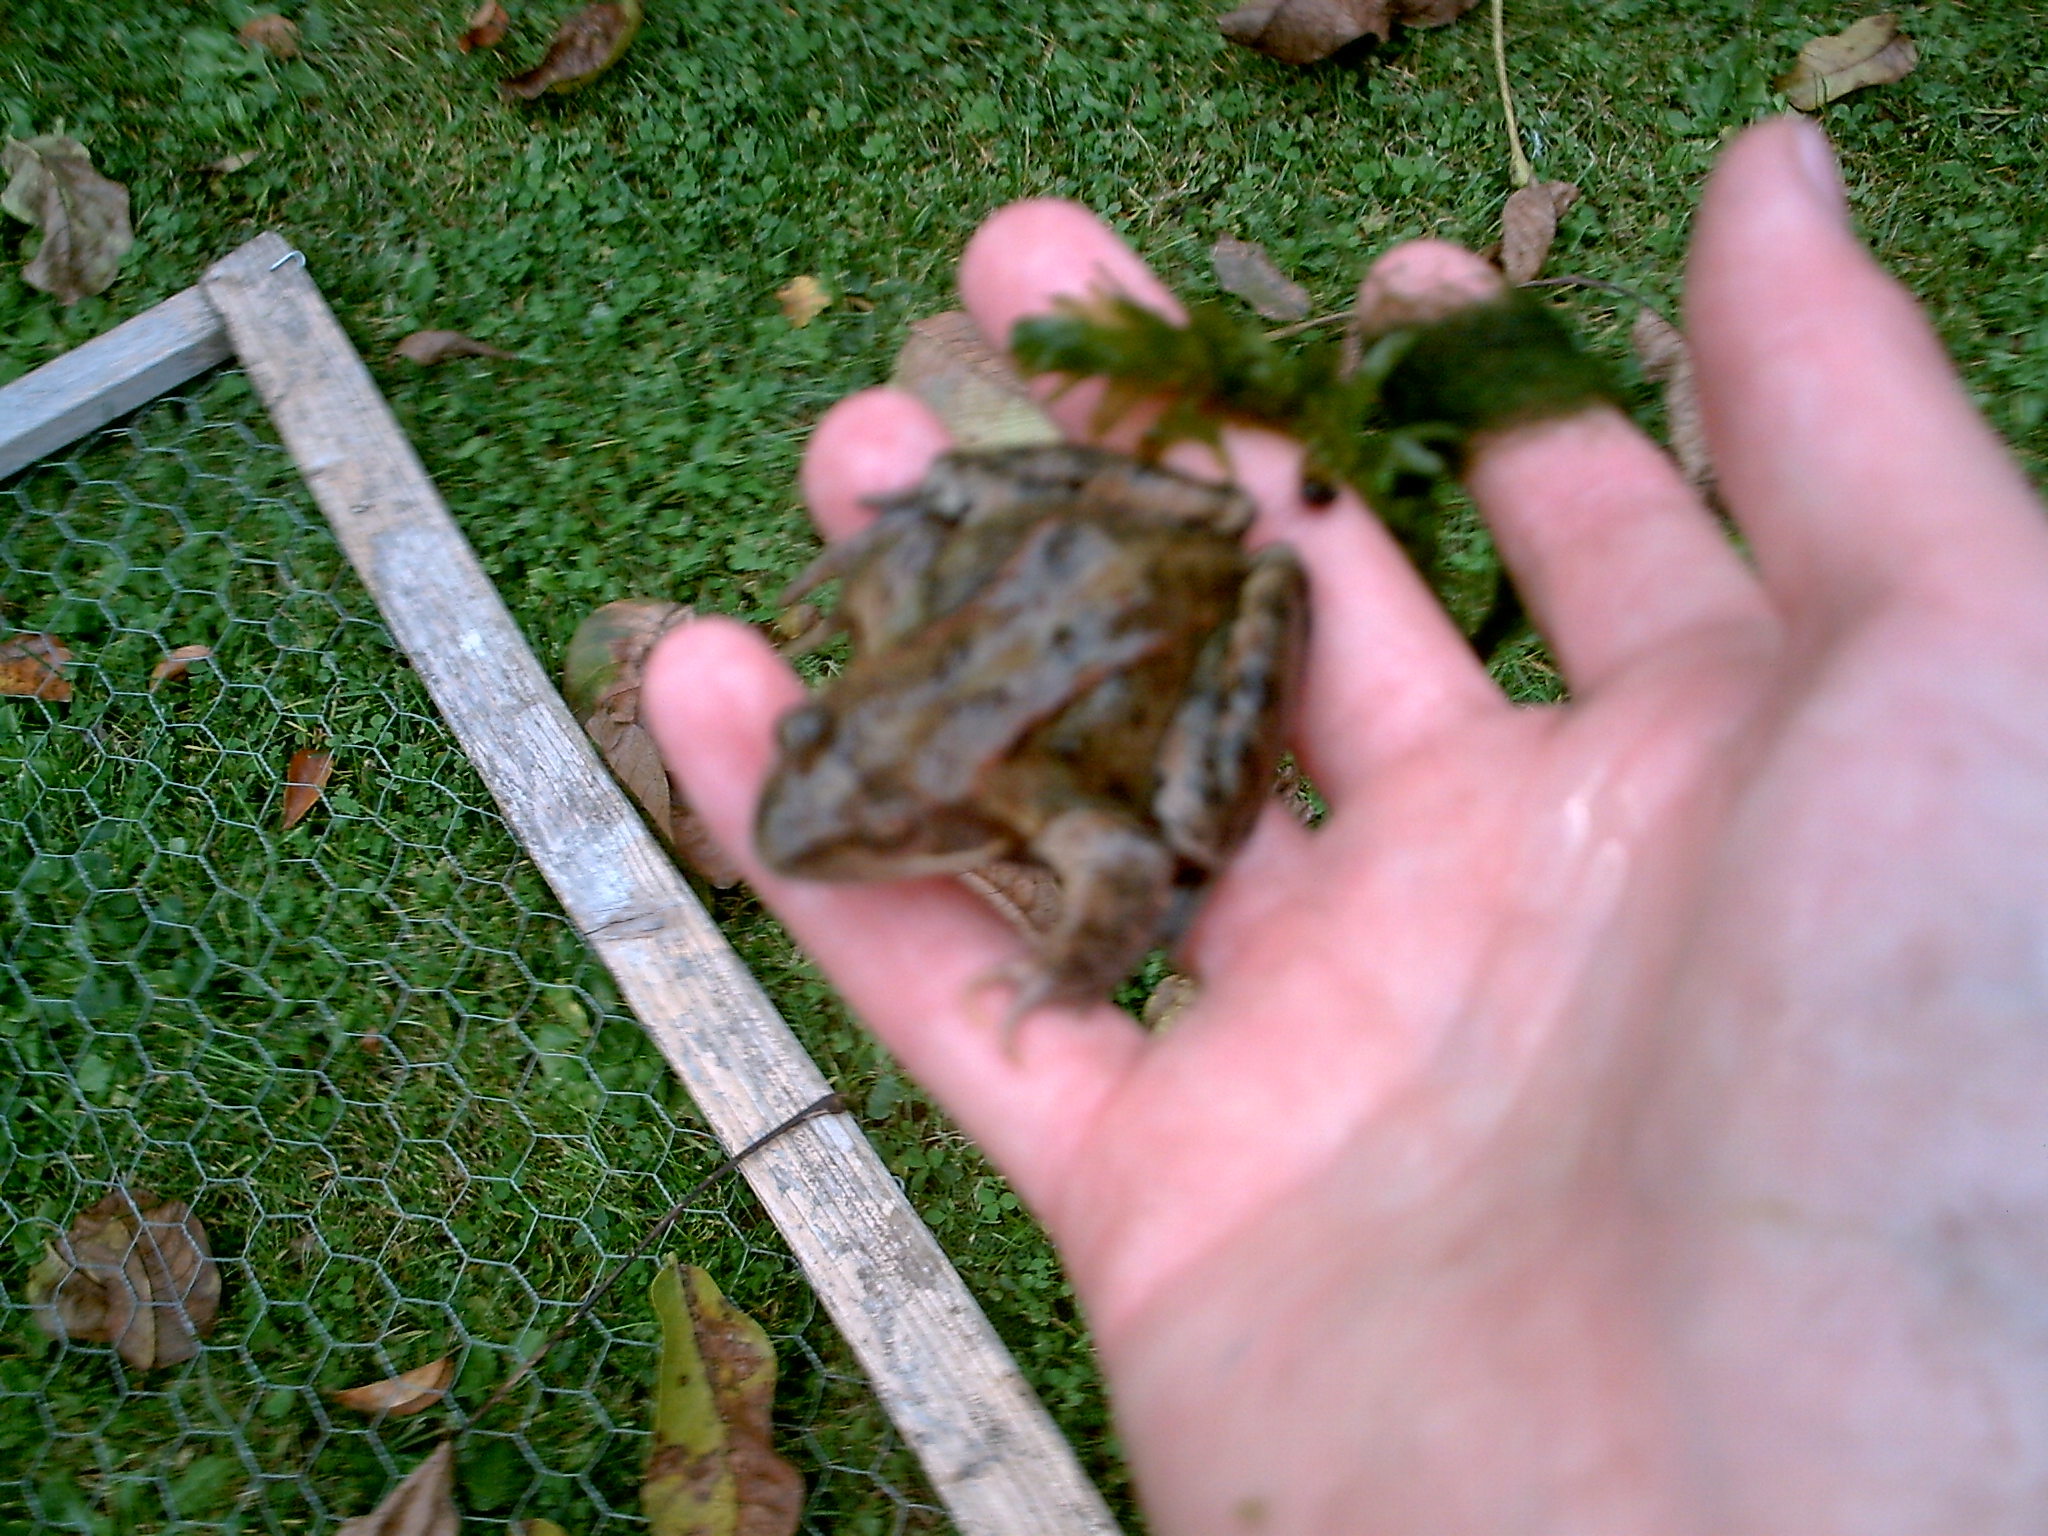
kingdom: Animalia
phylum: Chordata
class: Amphibia
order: Anura
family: Ranidae
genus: Rana
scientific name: Rana temporaria
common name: Common frog
